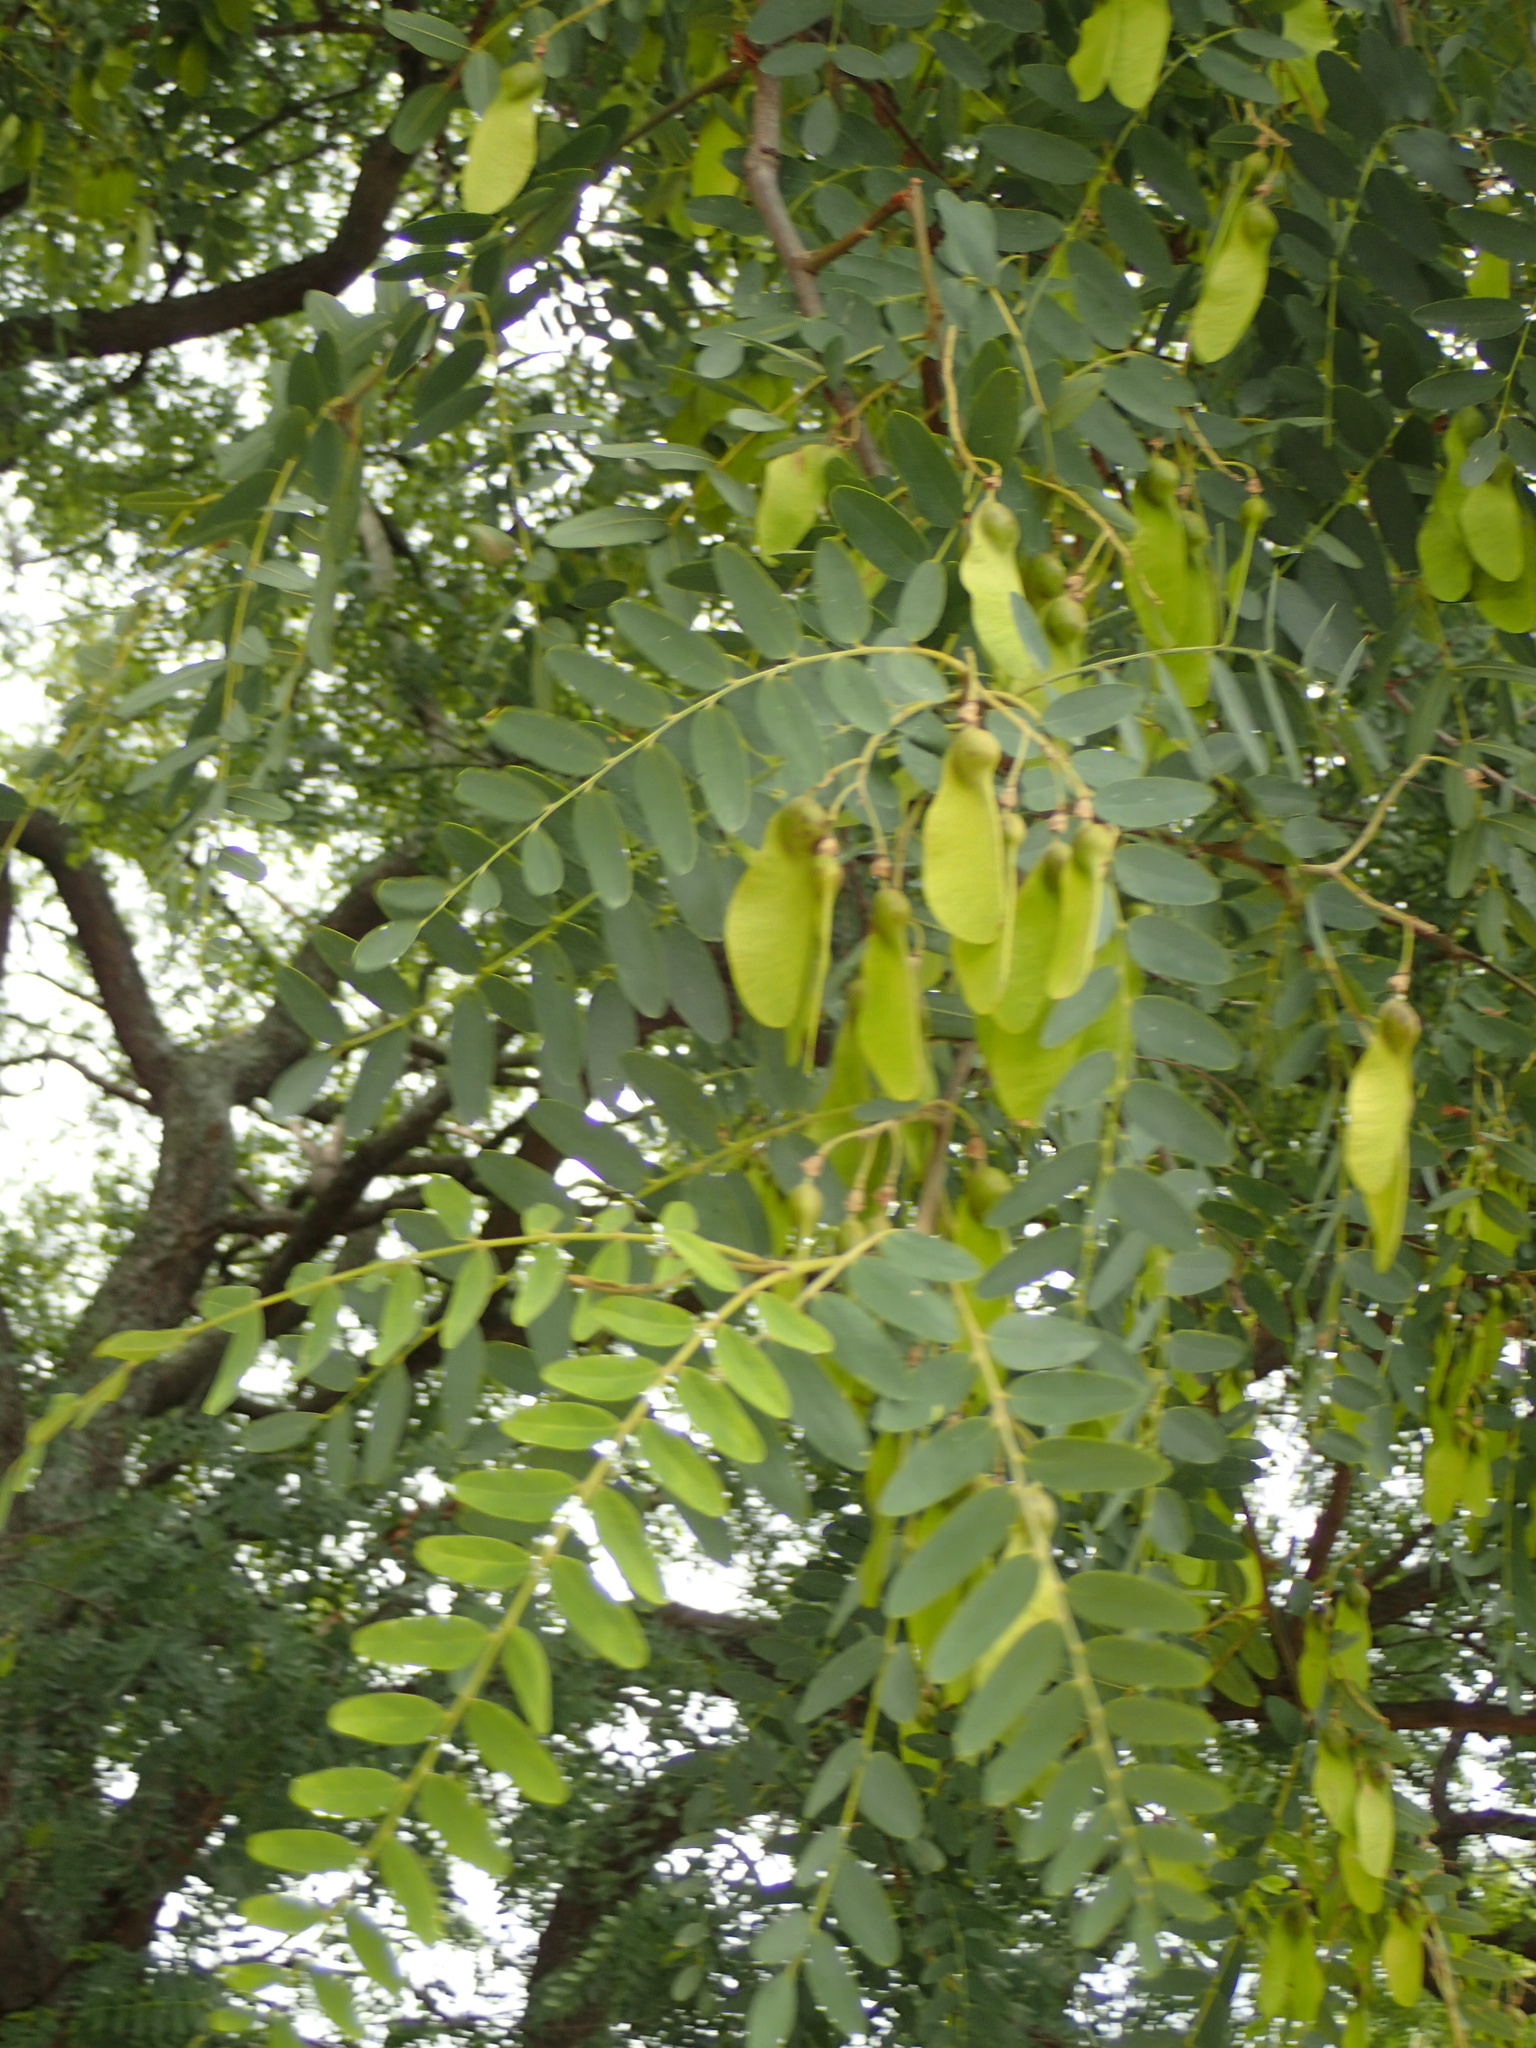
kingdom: Plantae
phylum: Tracheophyta
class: Magnoliopsida
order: Fabales
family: Fabaceae
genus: Tipuana
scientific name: Tipuana tipu
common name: Tiputree
